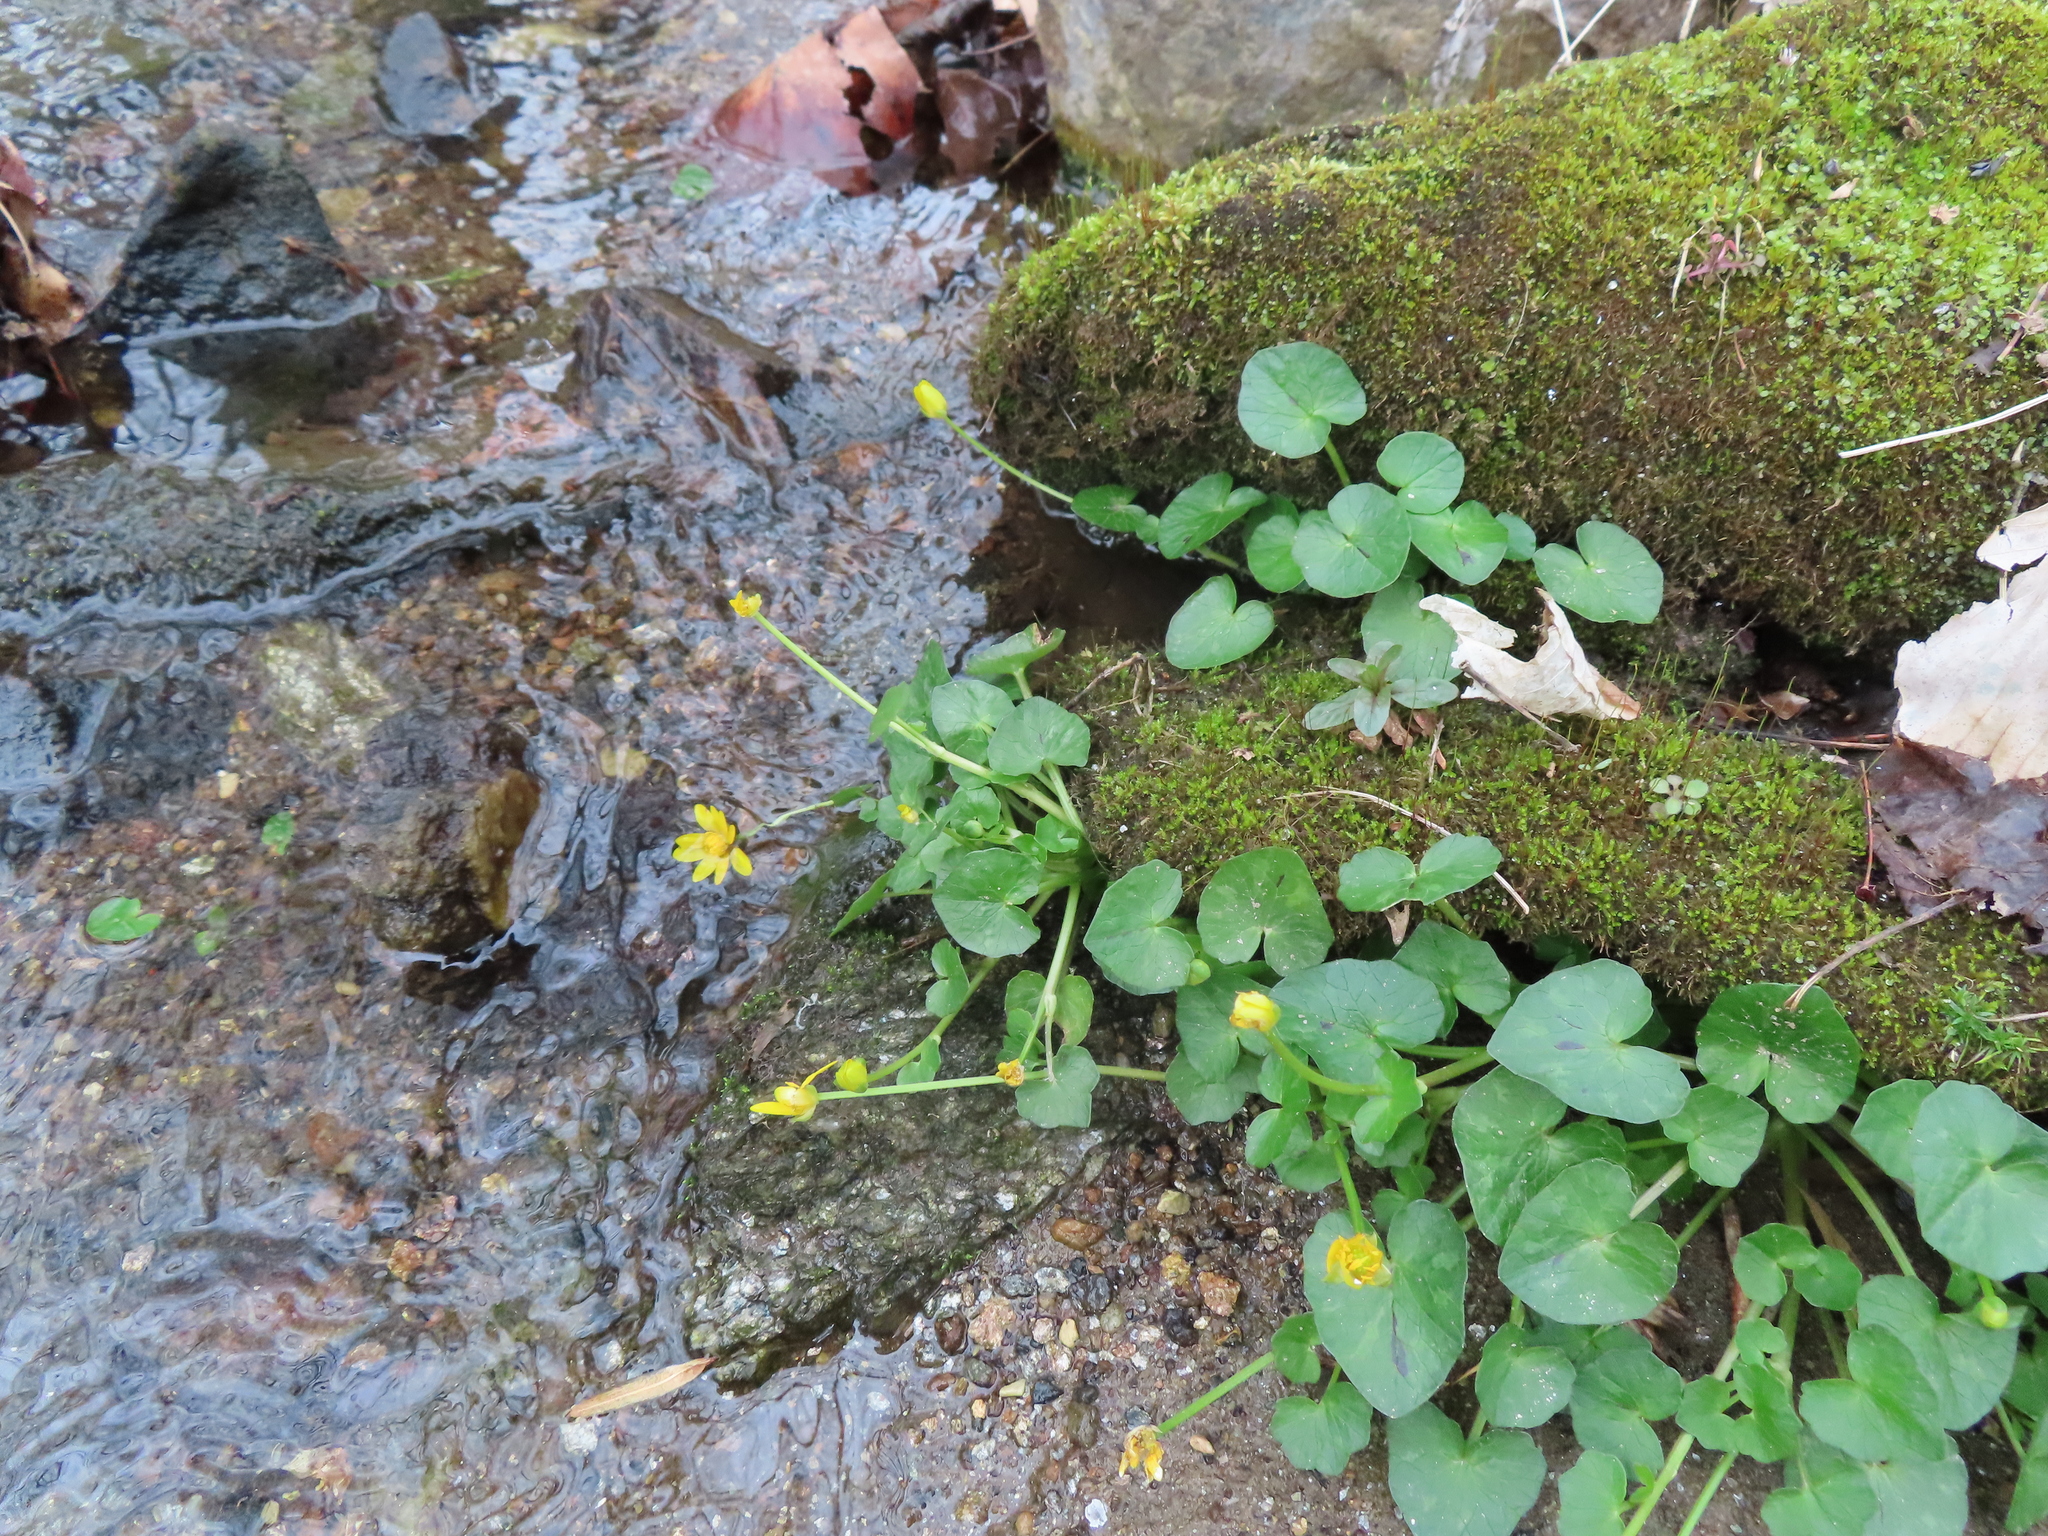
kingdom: Plantae
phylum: Tracheophyta
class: Magnoliopsida
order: Ranunculales
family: Ranunculaceae
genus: Ficaria
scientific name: Ficaria verna
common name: Lesser celandine
